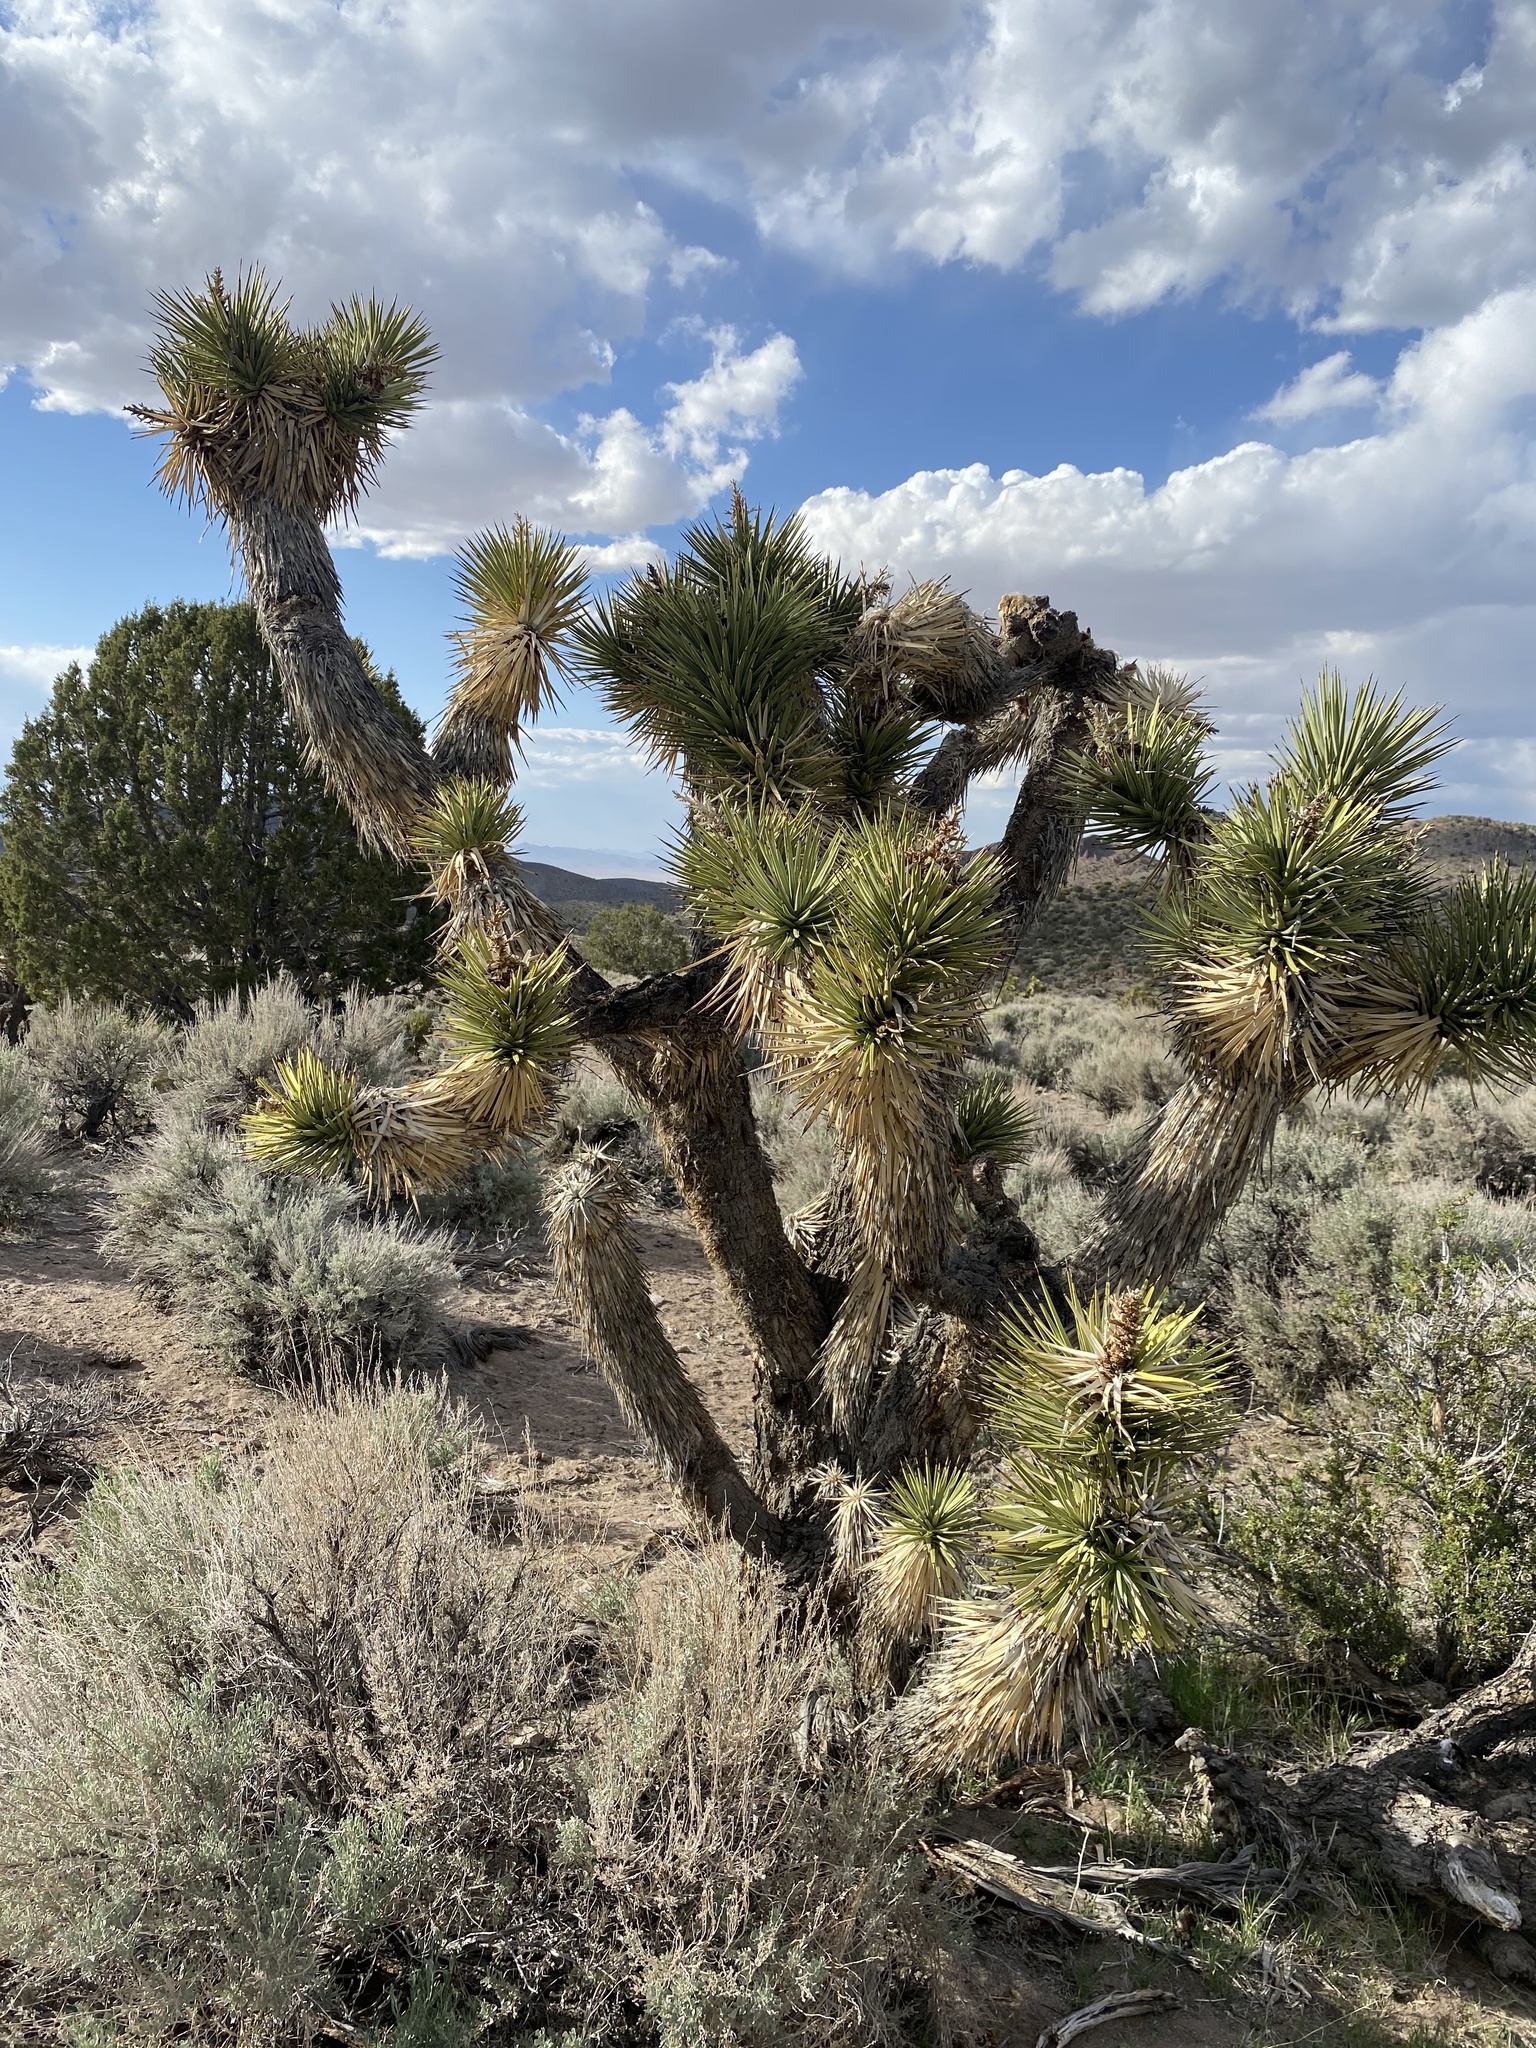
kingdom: Plantae
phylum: Tracheophyta
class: Liliopsida
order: Asparagales
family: Asparagaceae
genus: Yucca
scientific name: Yucca brevifolia
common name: Joshua tree
